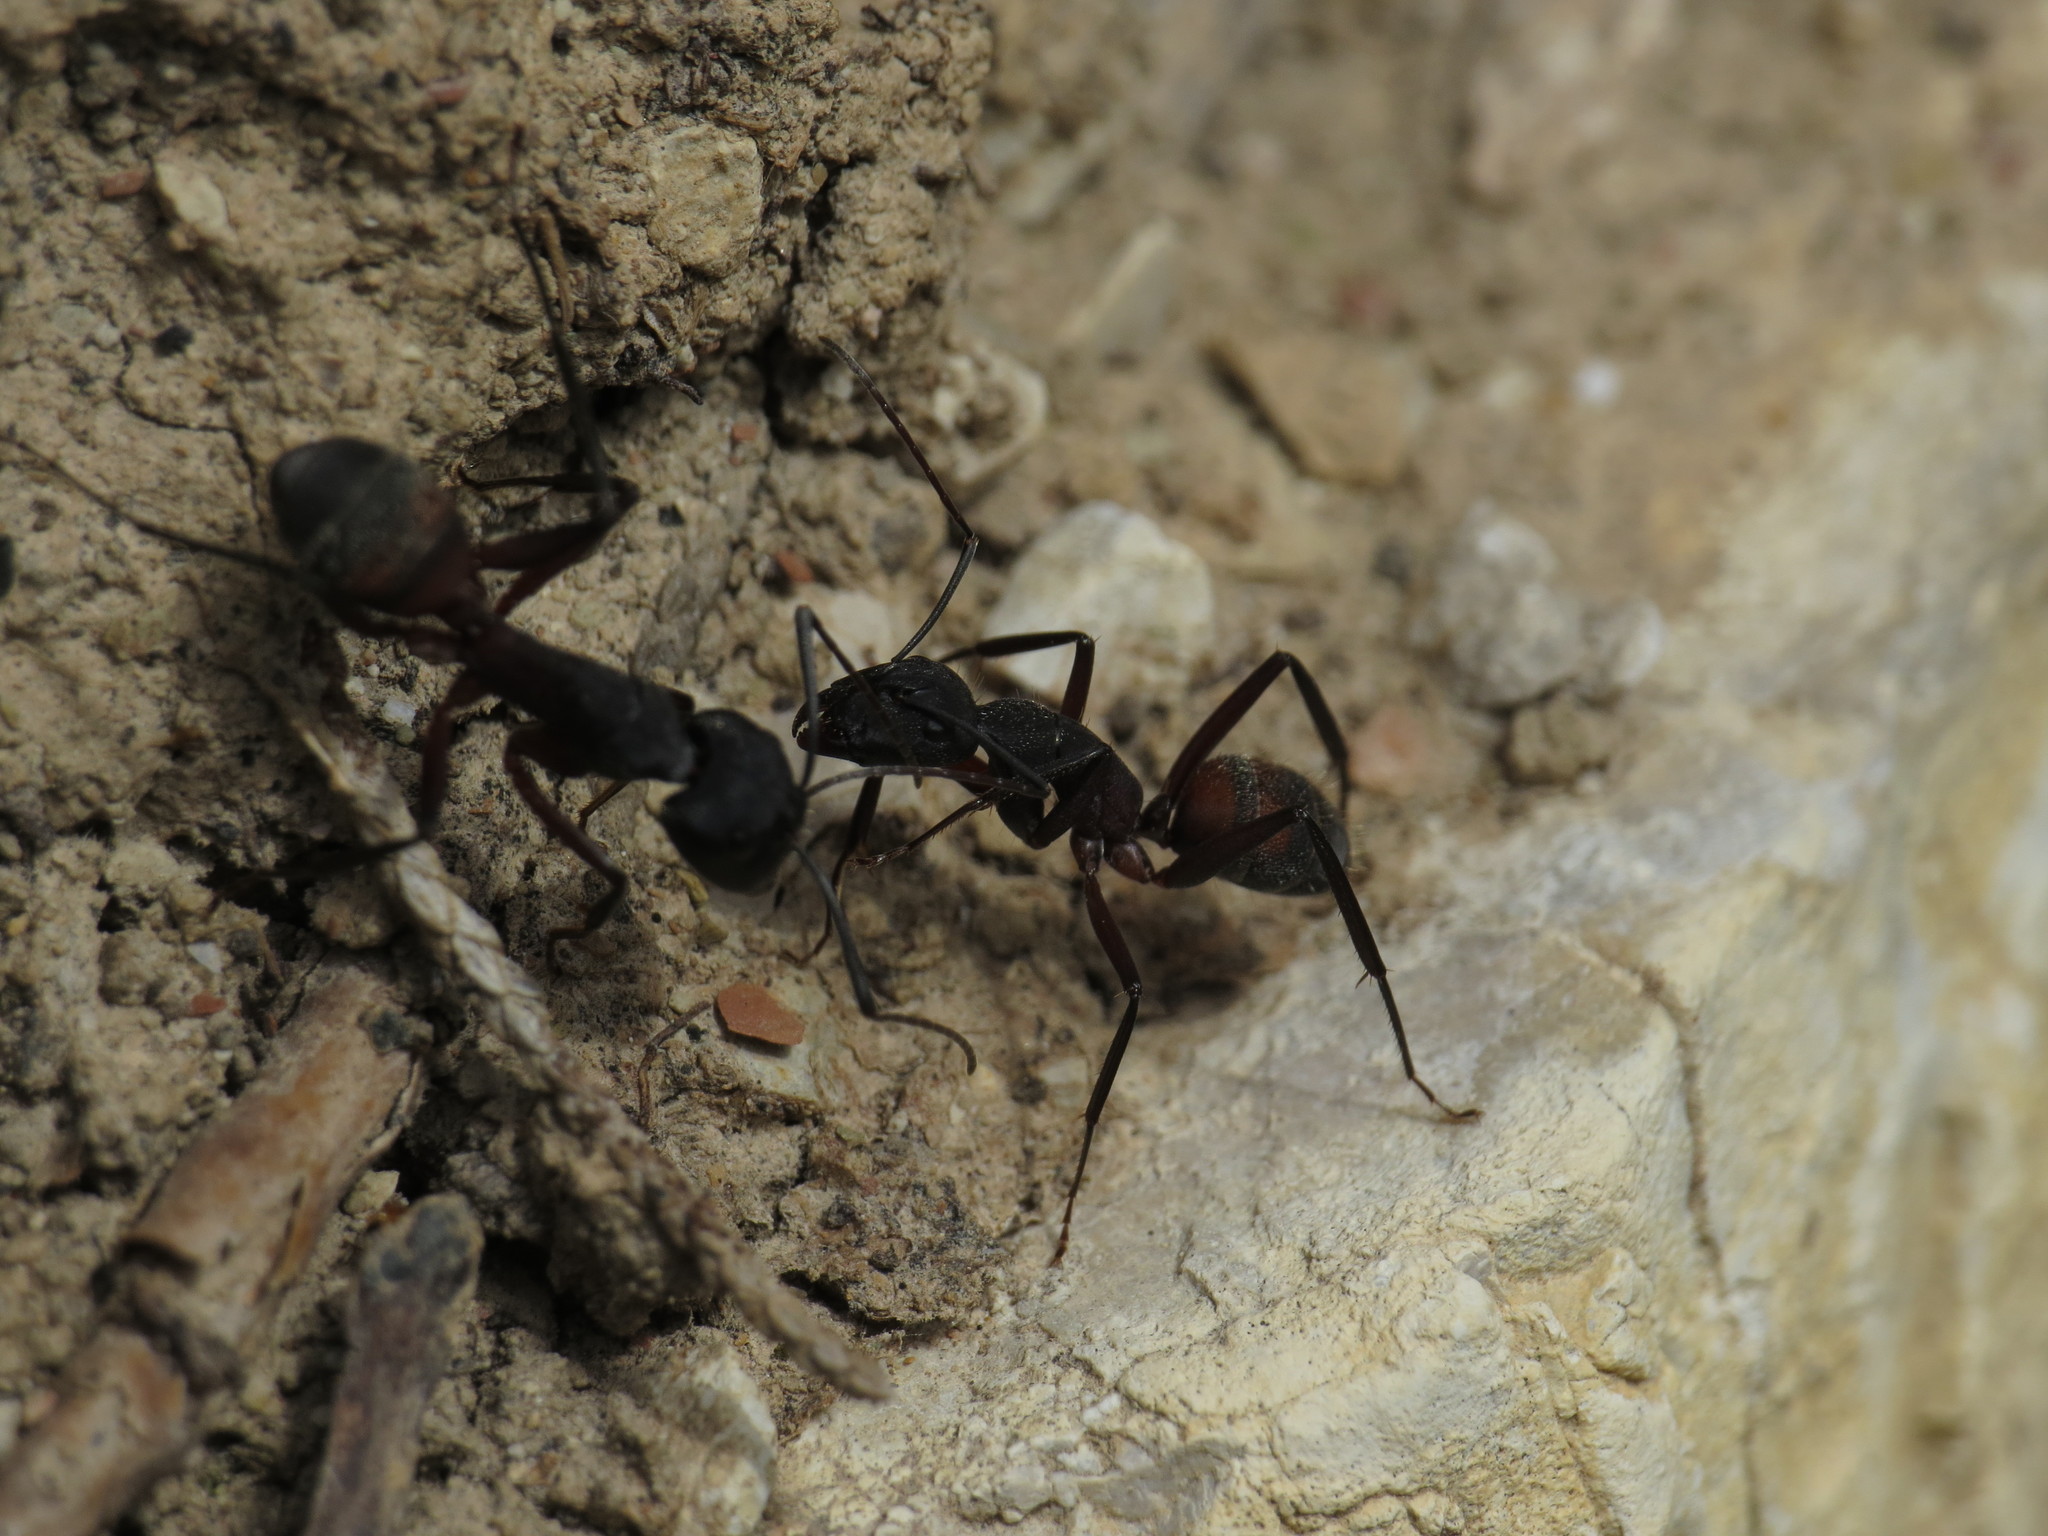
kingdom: Animalia
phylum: Arthropoda
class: Insecta
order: Hymenoptera
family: Formicidae
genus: Camponotus
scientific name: Camponotus cruentatus
